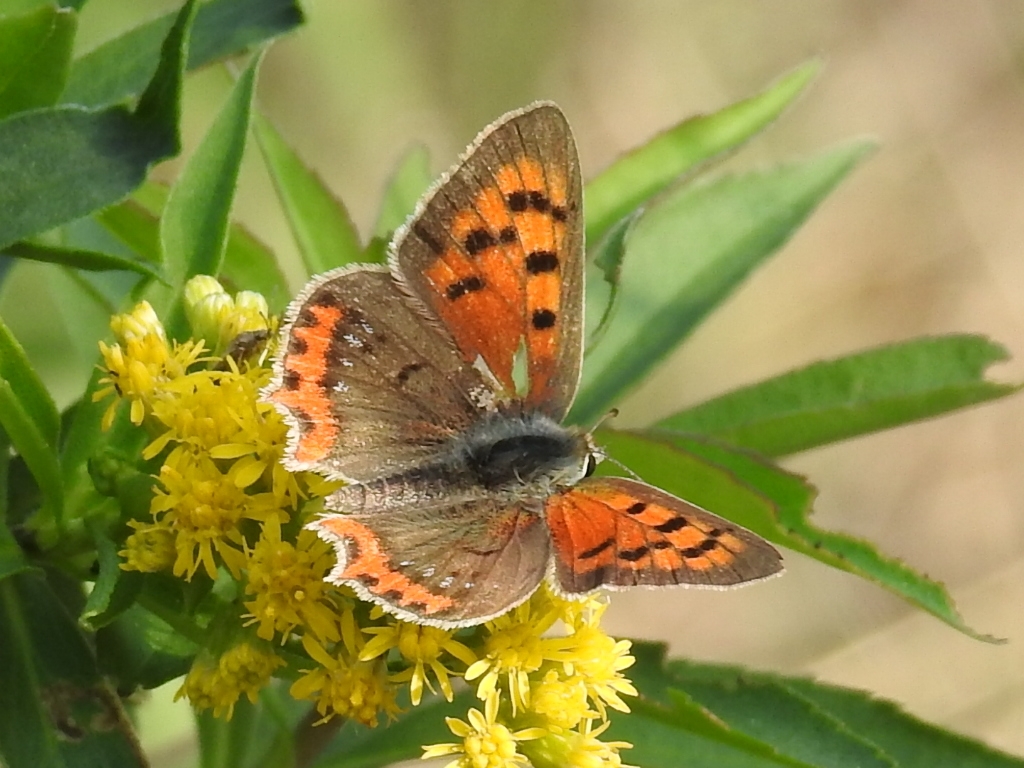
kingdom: Animalia
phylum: Arthropoda
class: Insecta
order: Lepidoptera
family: Lycaenidae
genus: Lycaena
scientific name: Lycaena phlaeas
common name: Small copper
